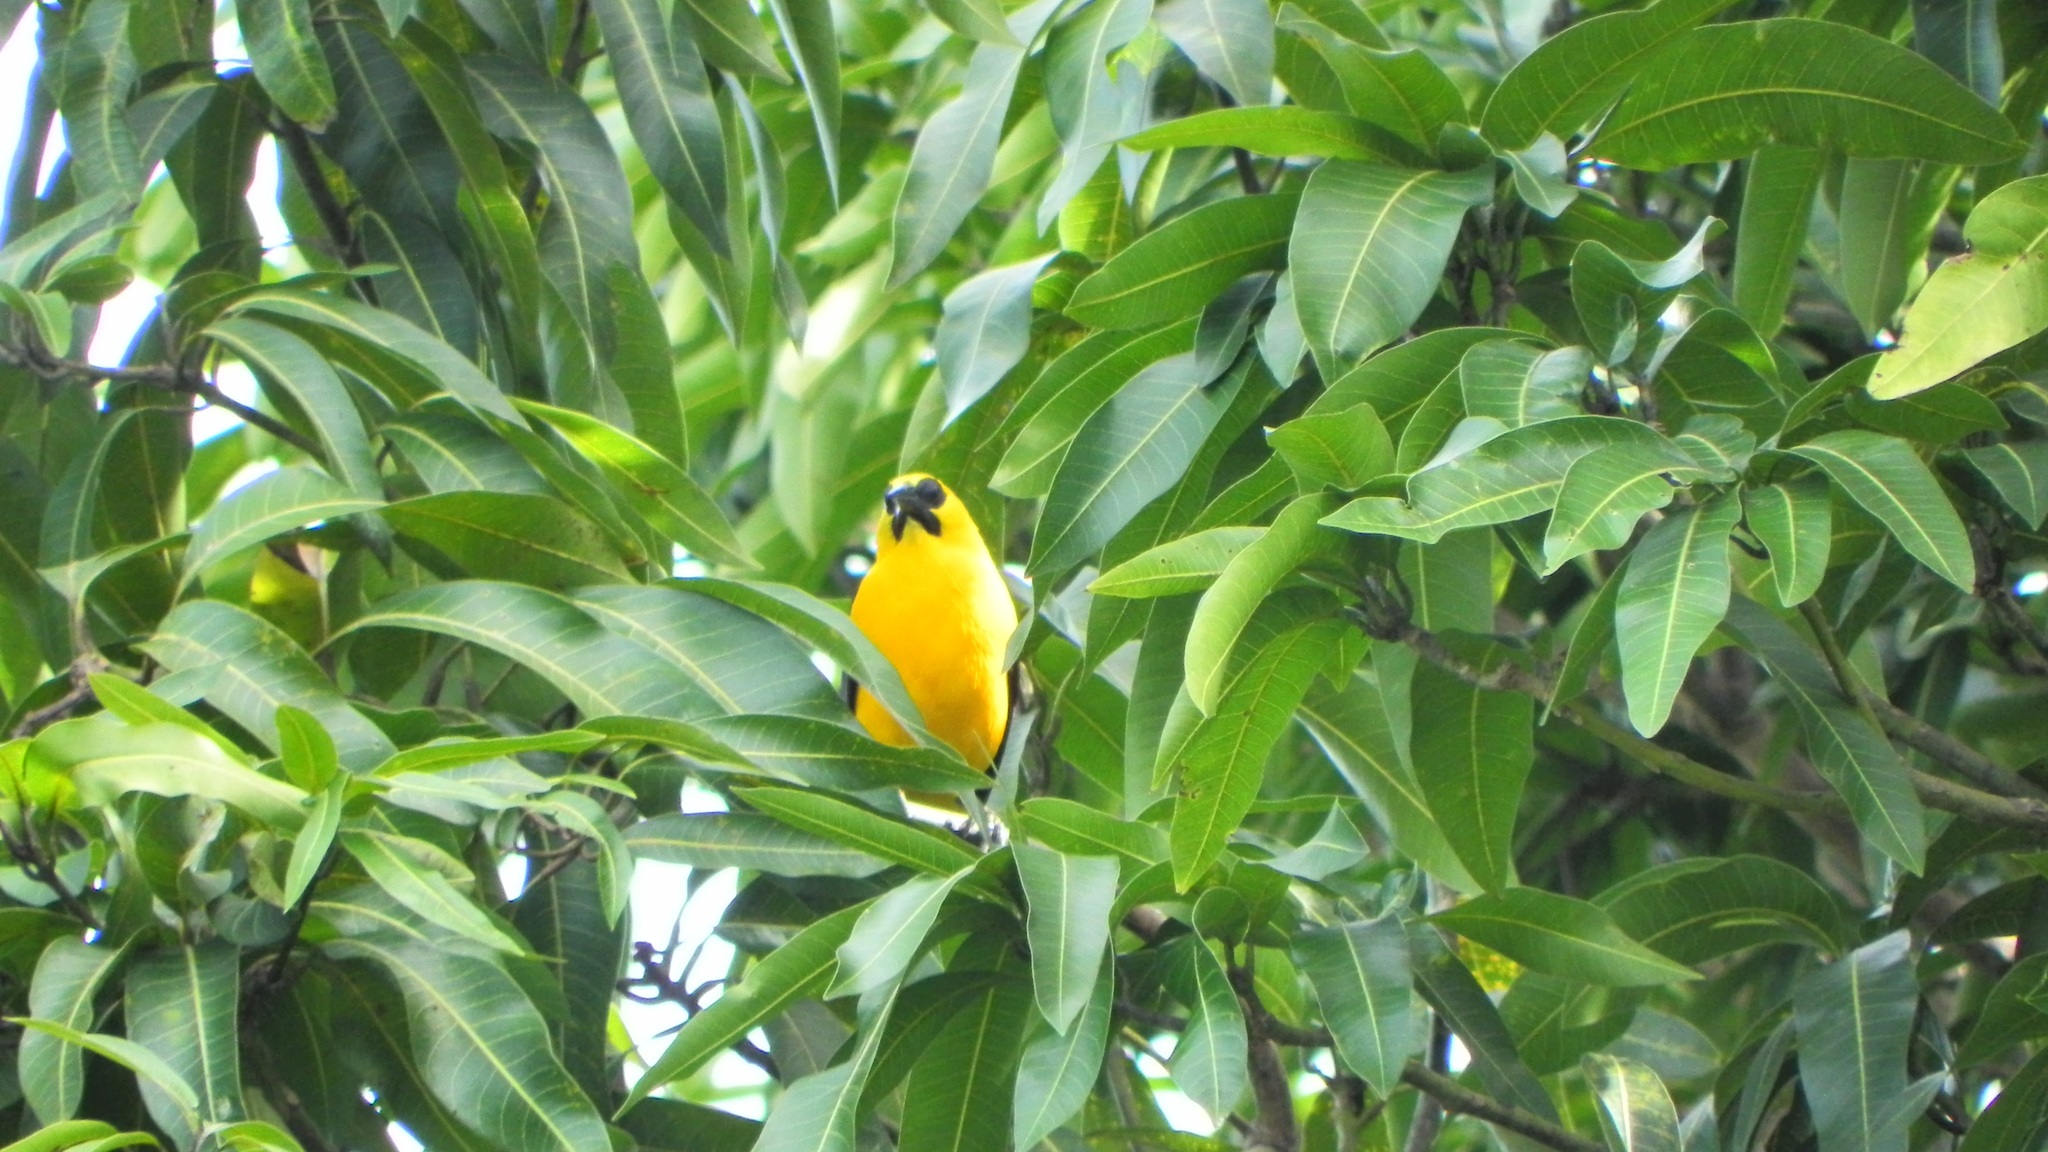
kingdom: Animalia
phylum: Chordata
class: Aves
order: Passeriformes
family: Icteridae
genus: Gymnomystax
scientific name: Gymnomystax mexicanus
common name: Oriole blackbird
